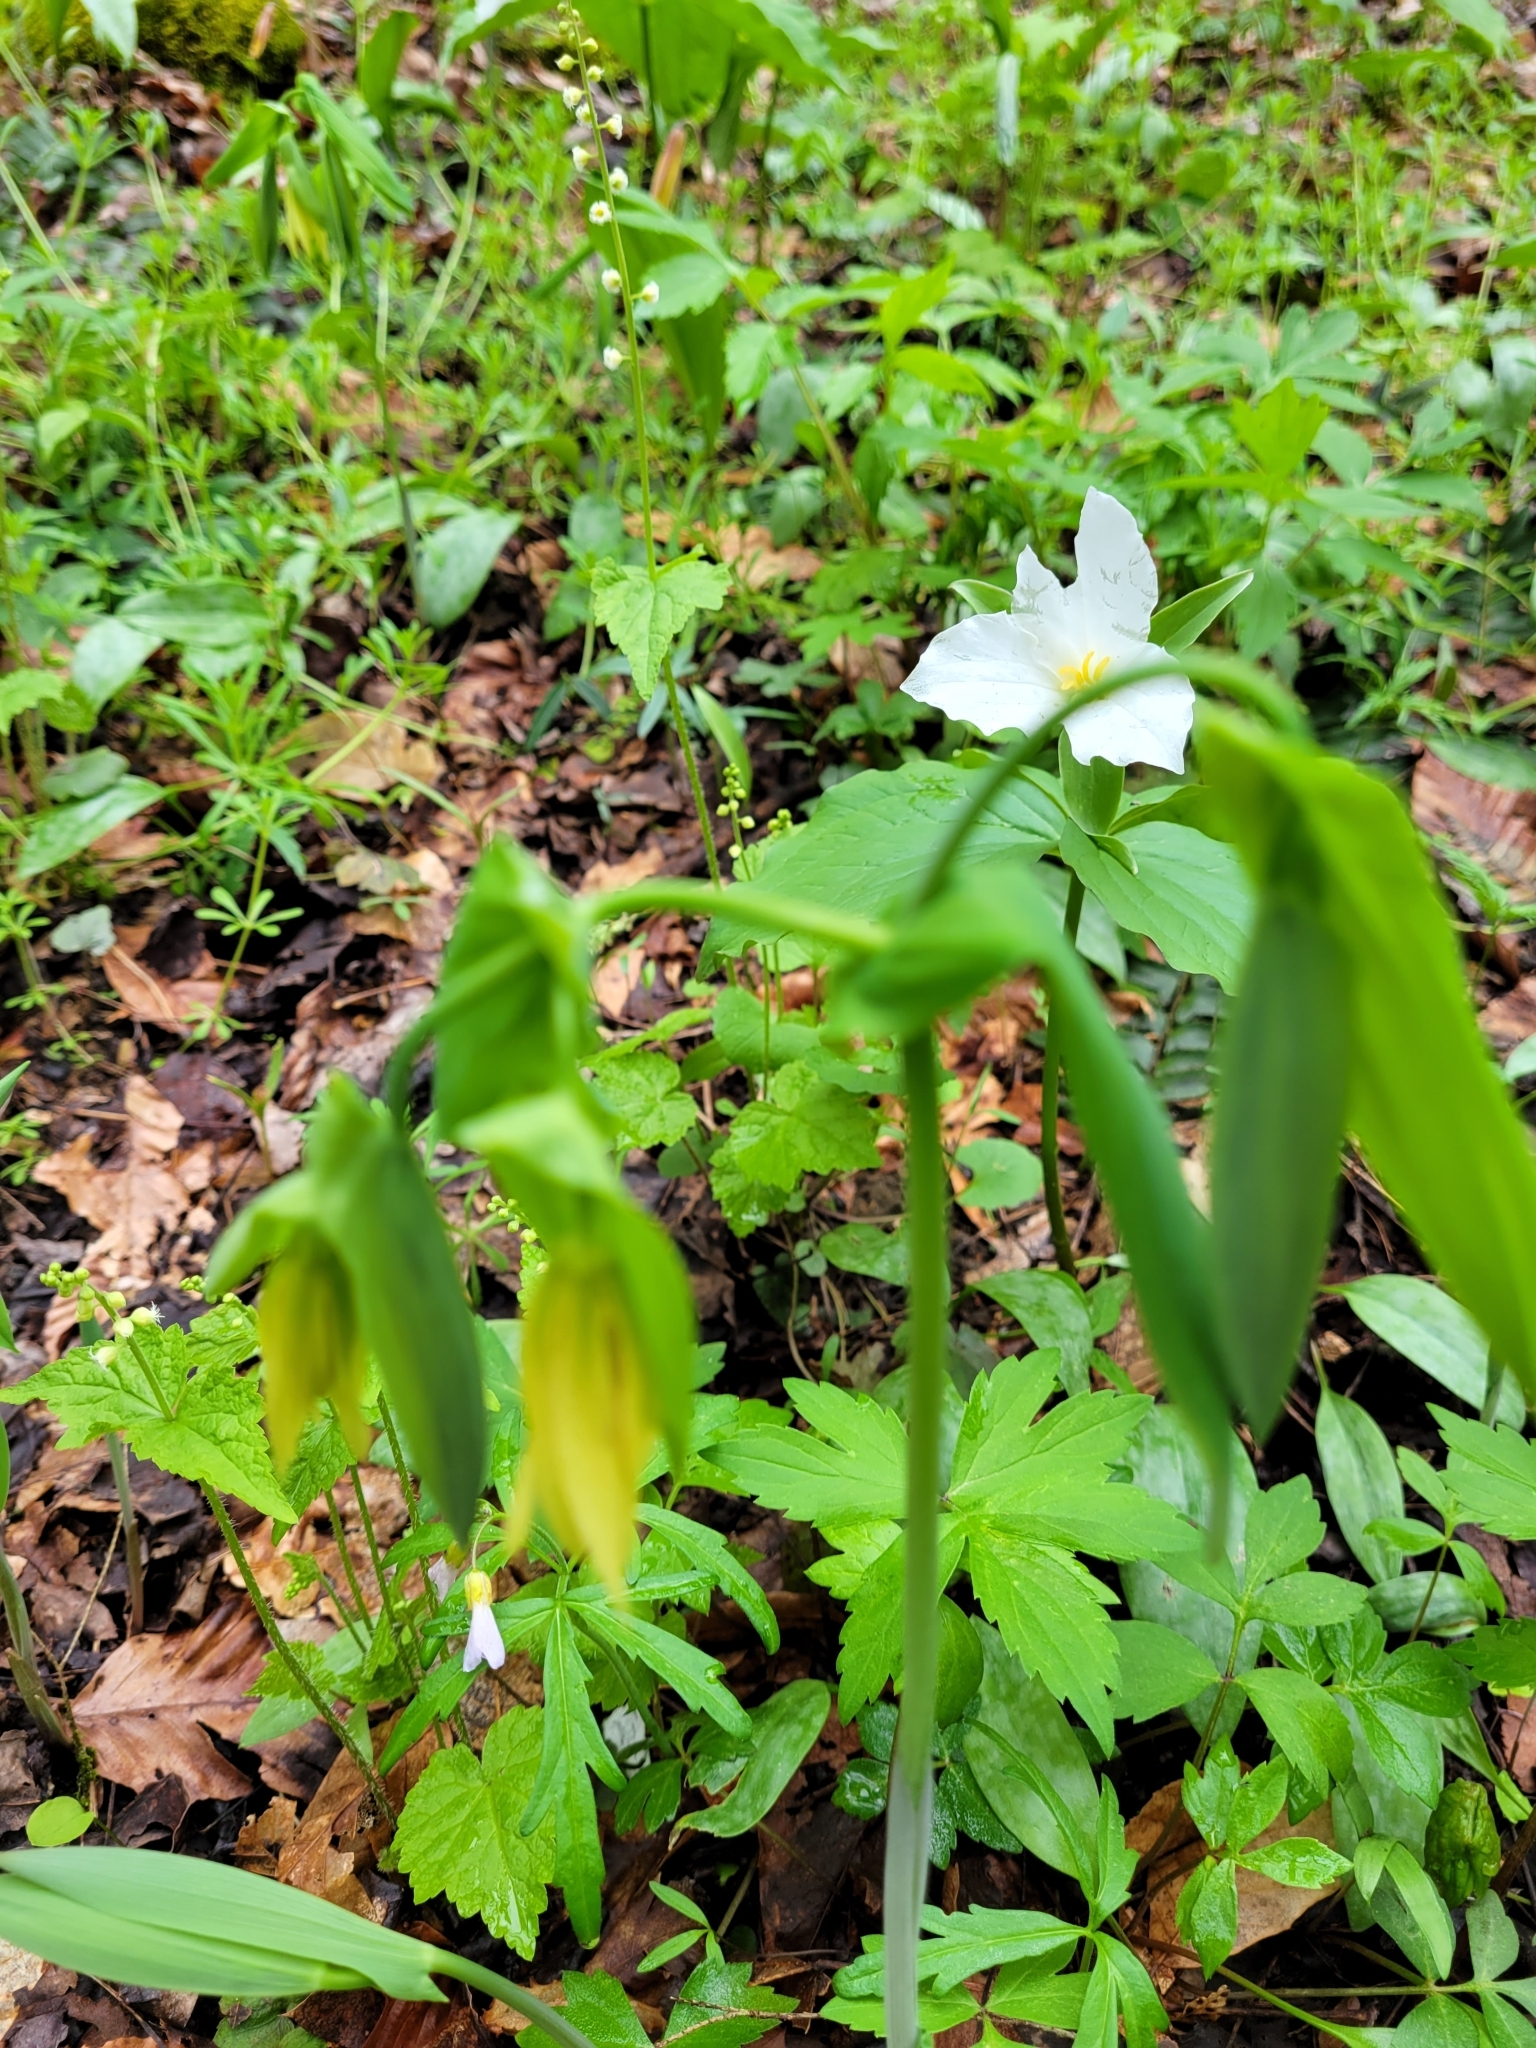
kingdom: Plantae
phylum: Tracheophyta
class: Liliopsida
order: Liliales
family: Colchicaceae
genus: Uvularia
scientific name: Uvularia grandiflora
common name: Bellwort
